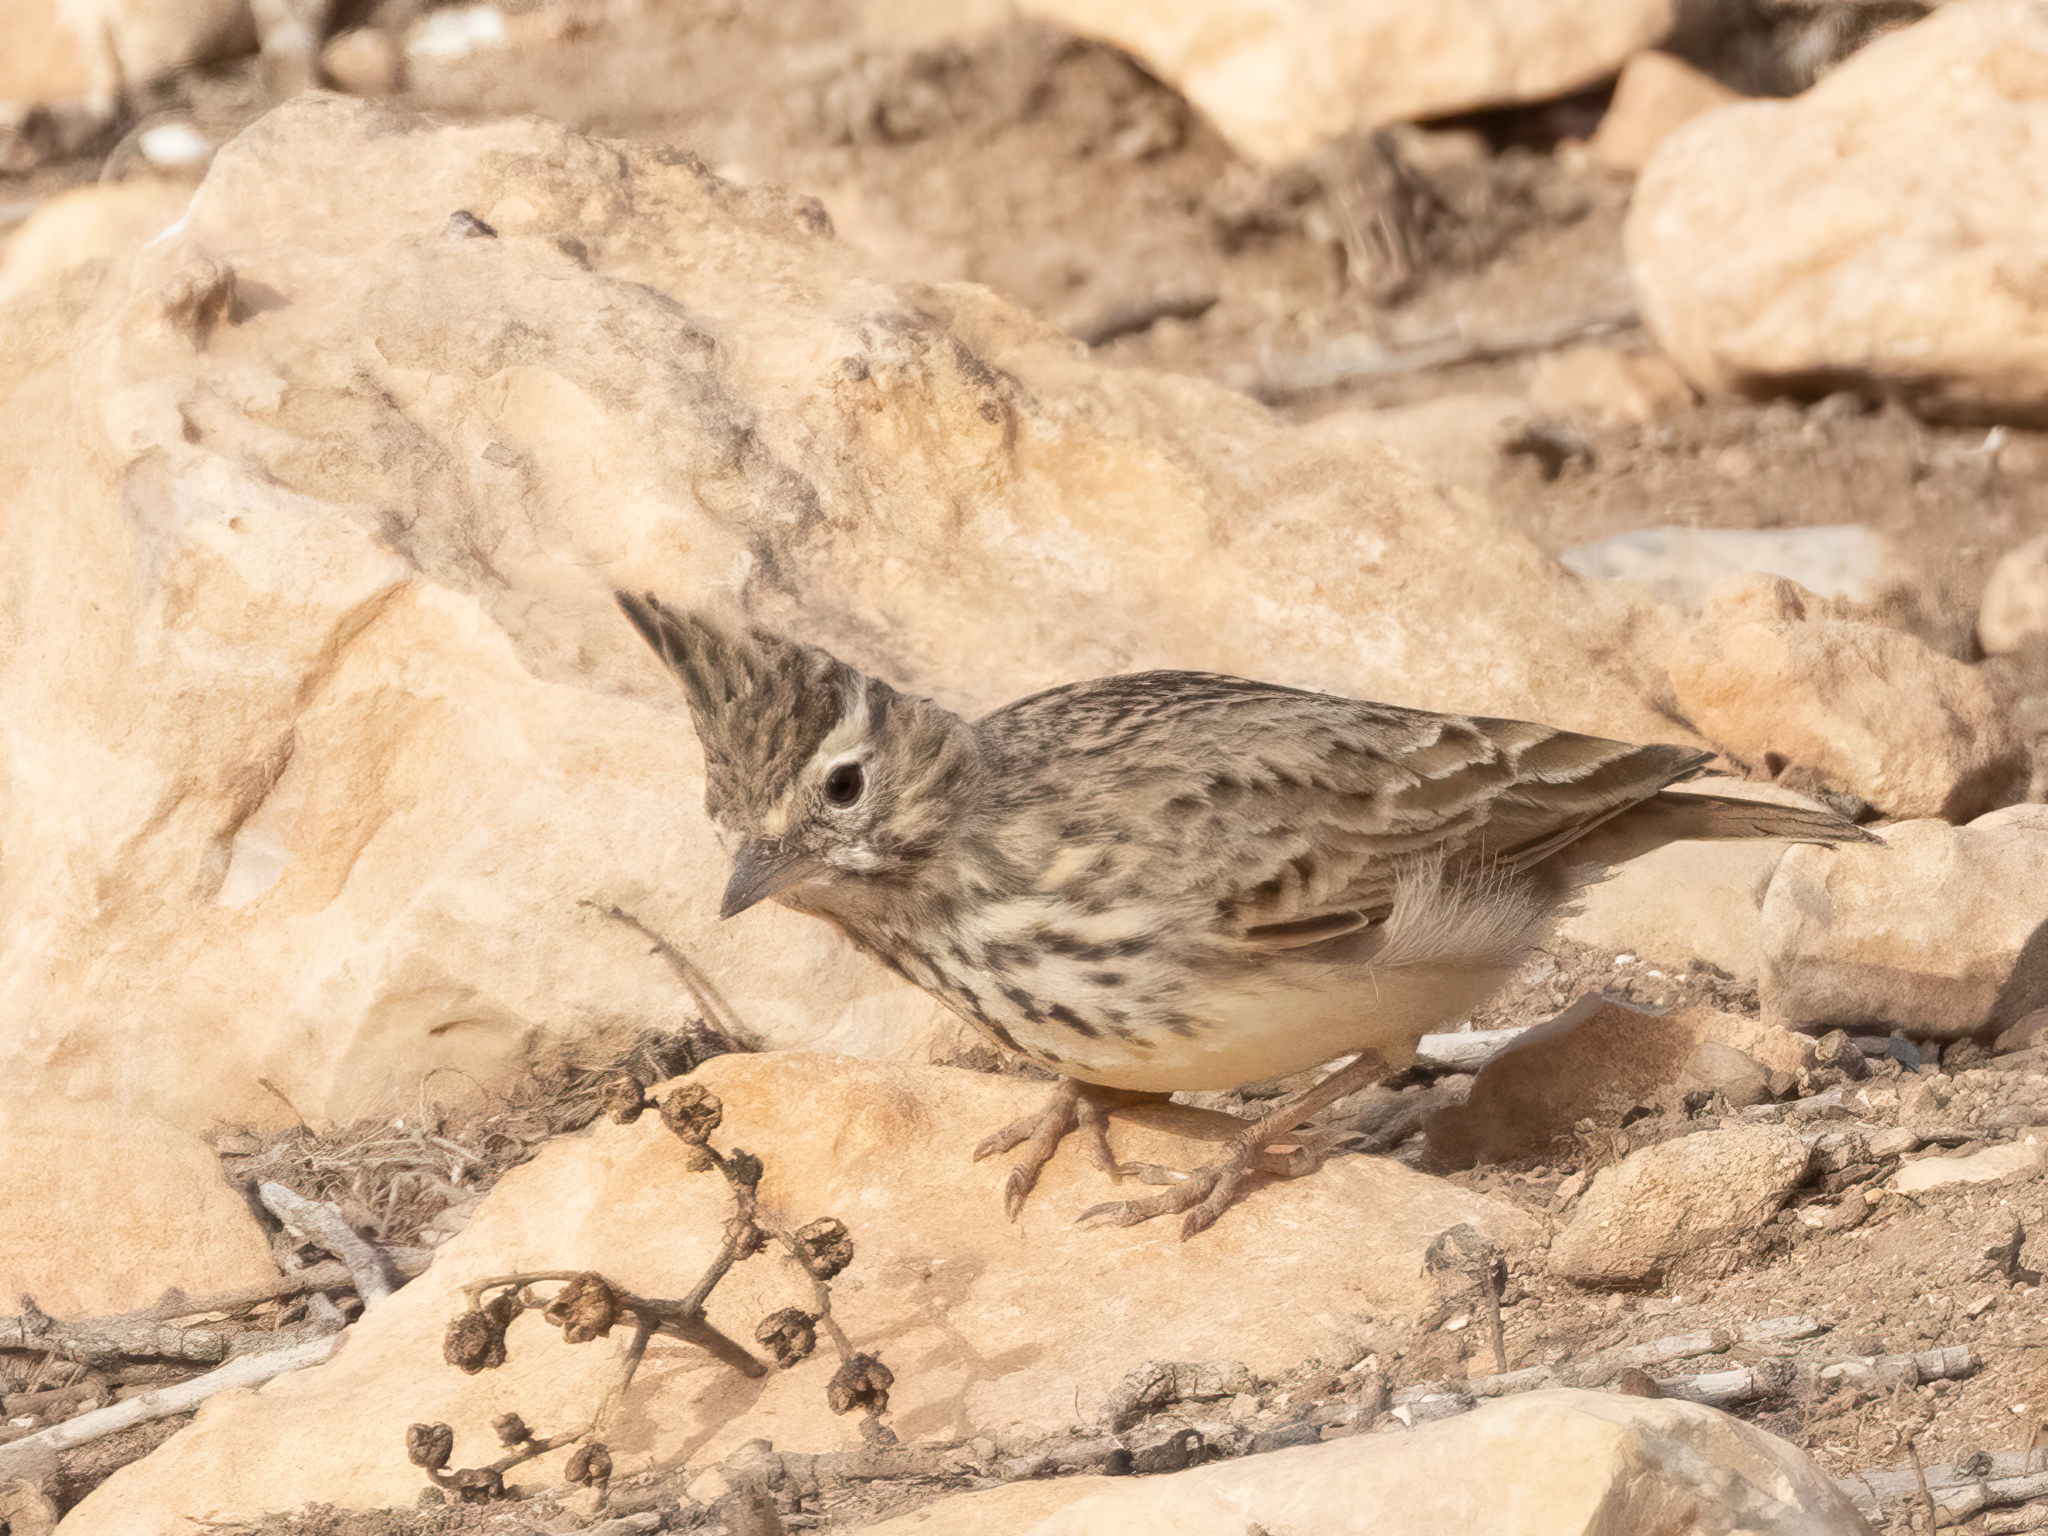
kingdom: Animalia
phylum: Chordata
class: Aves
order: Passeriformes
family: Alaudidae
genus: Galerida
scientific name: Galerida theklae
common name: Thekla lark
